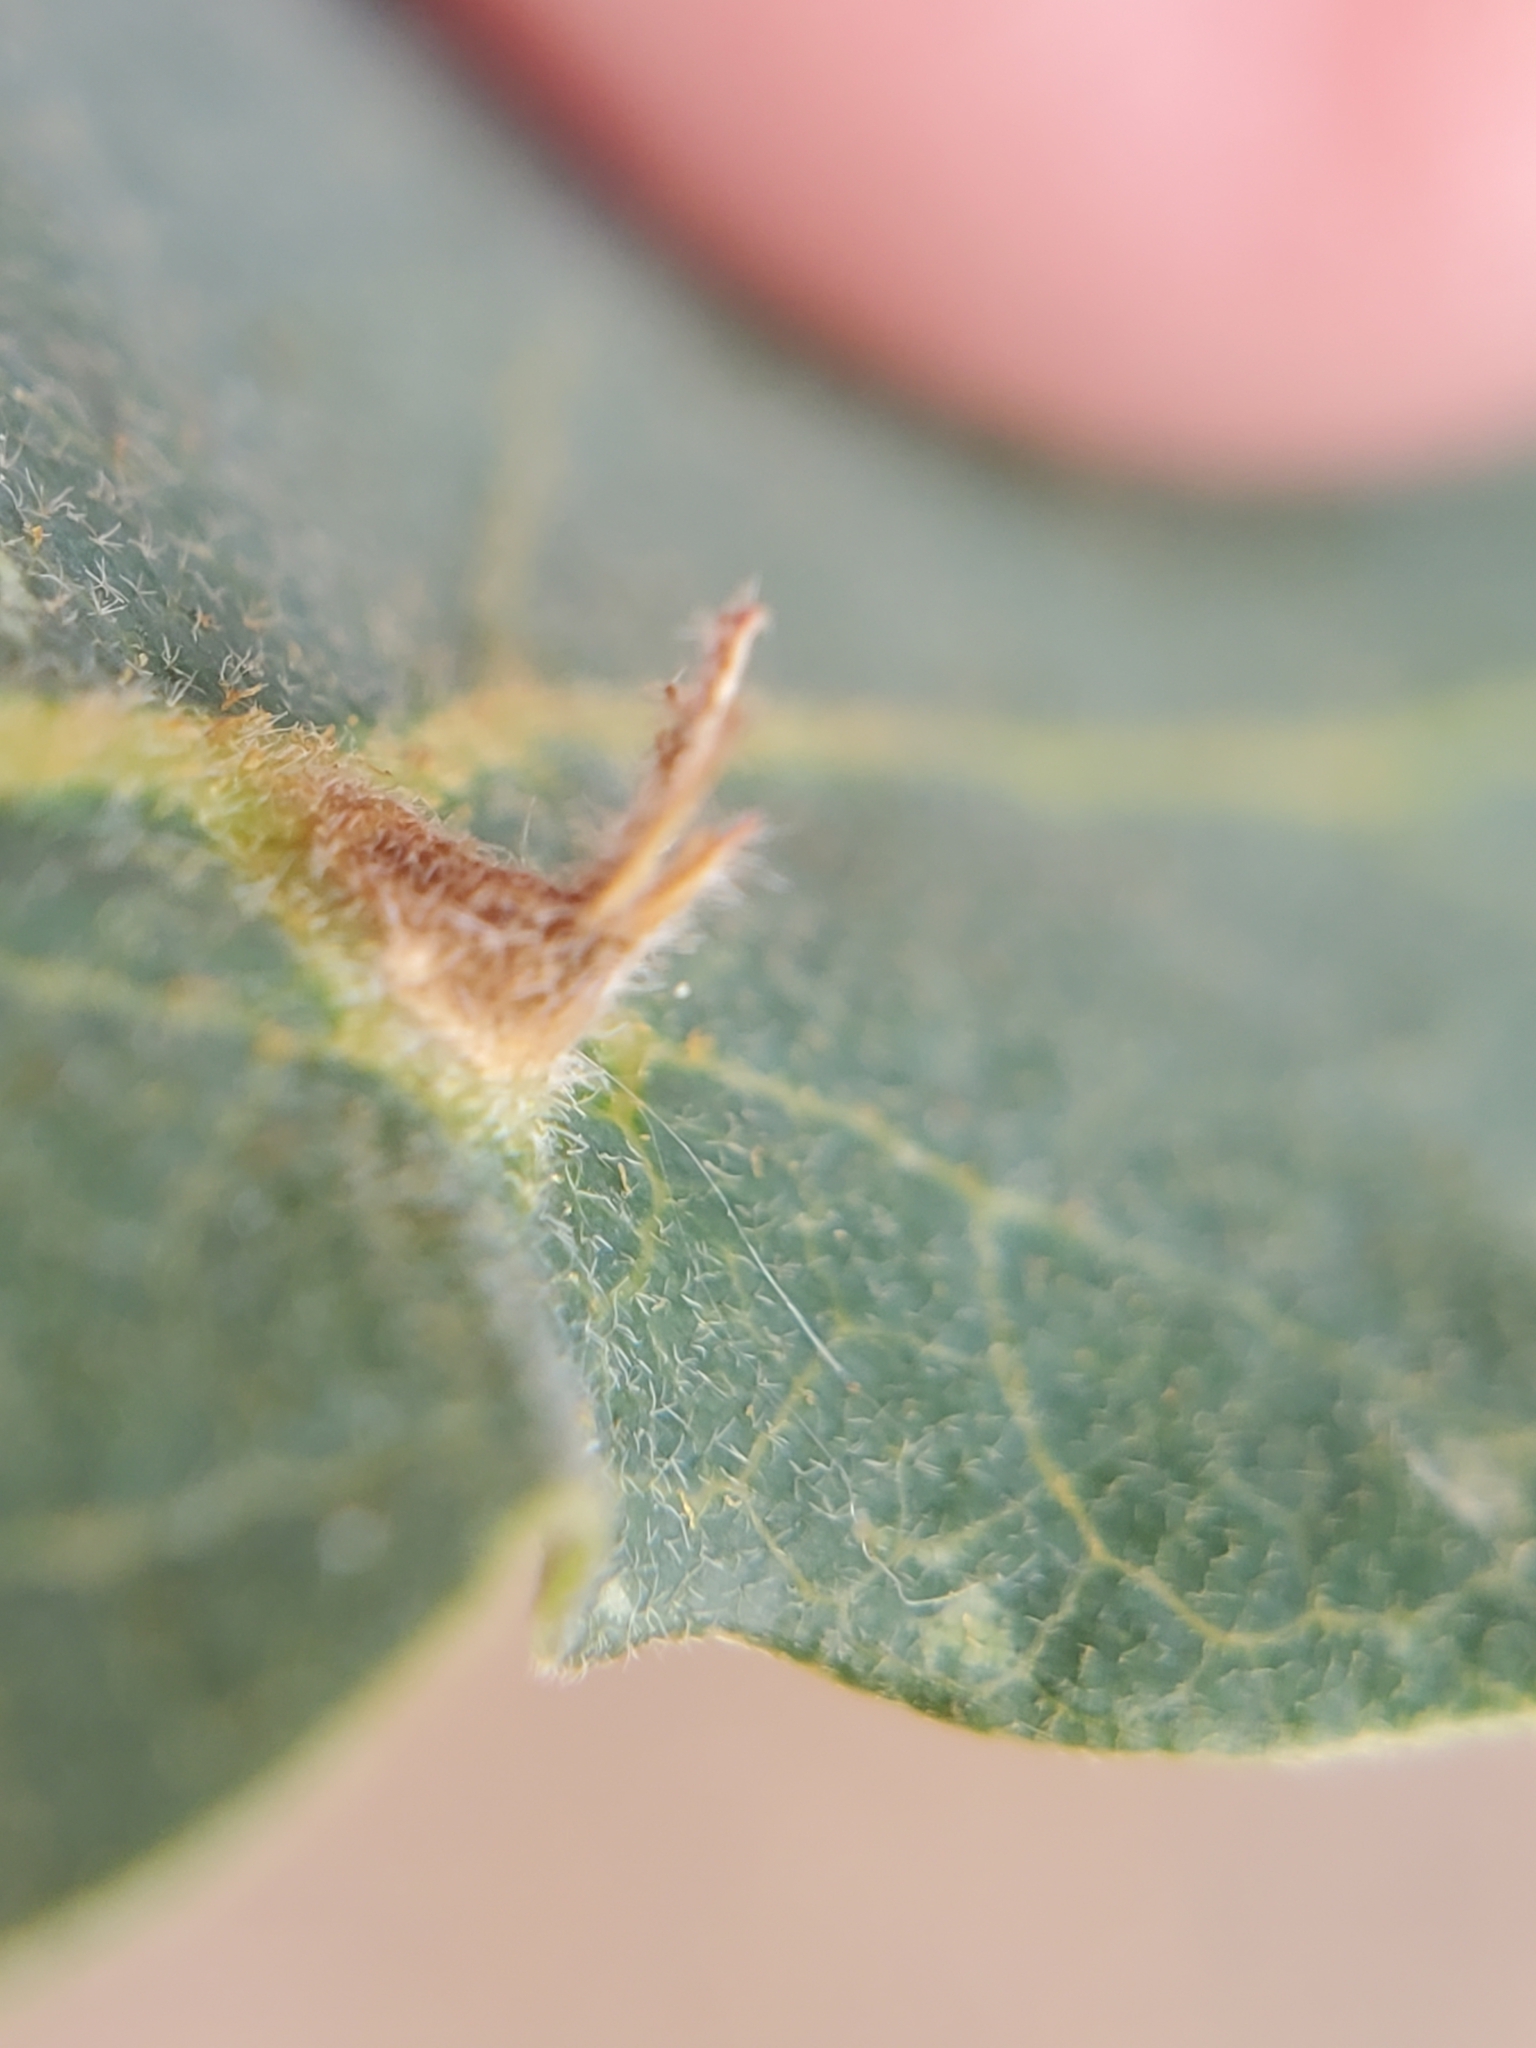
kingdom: Animalia
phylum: Arthropoda
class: Insecta
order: Hymenoptera
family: Cynipidae
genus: Andricus
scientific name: Andricus
